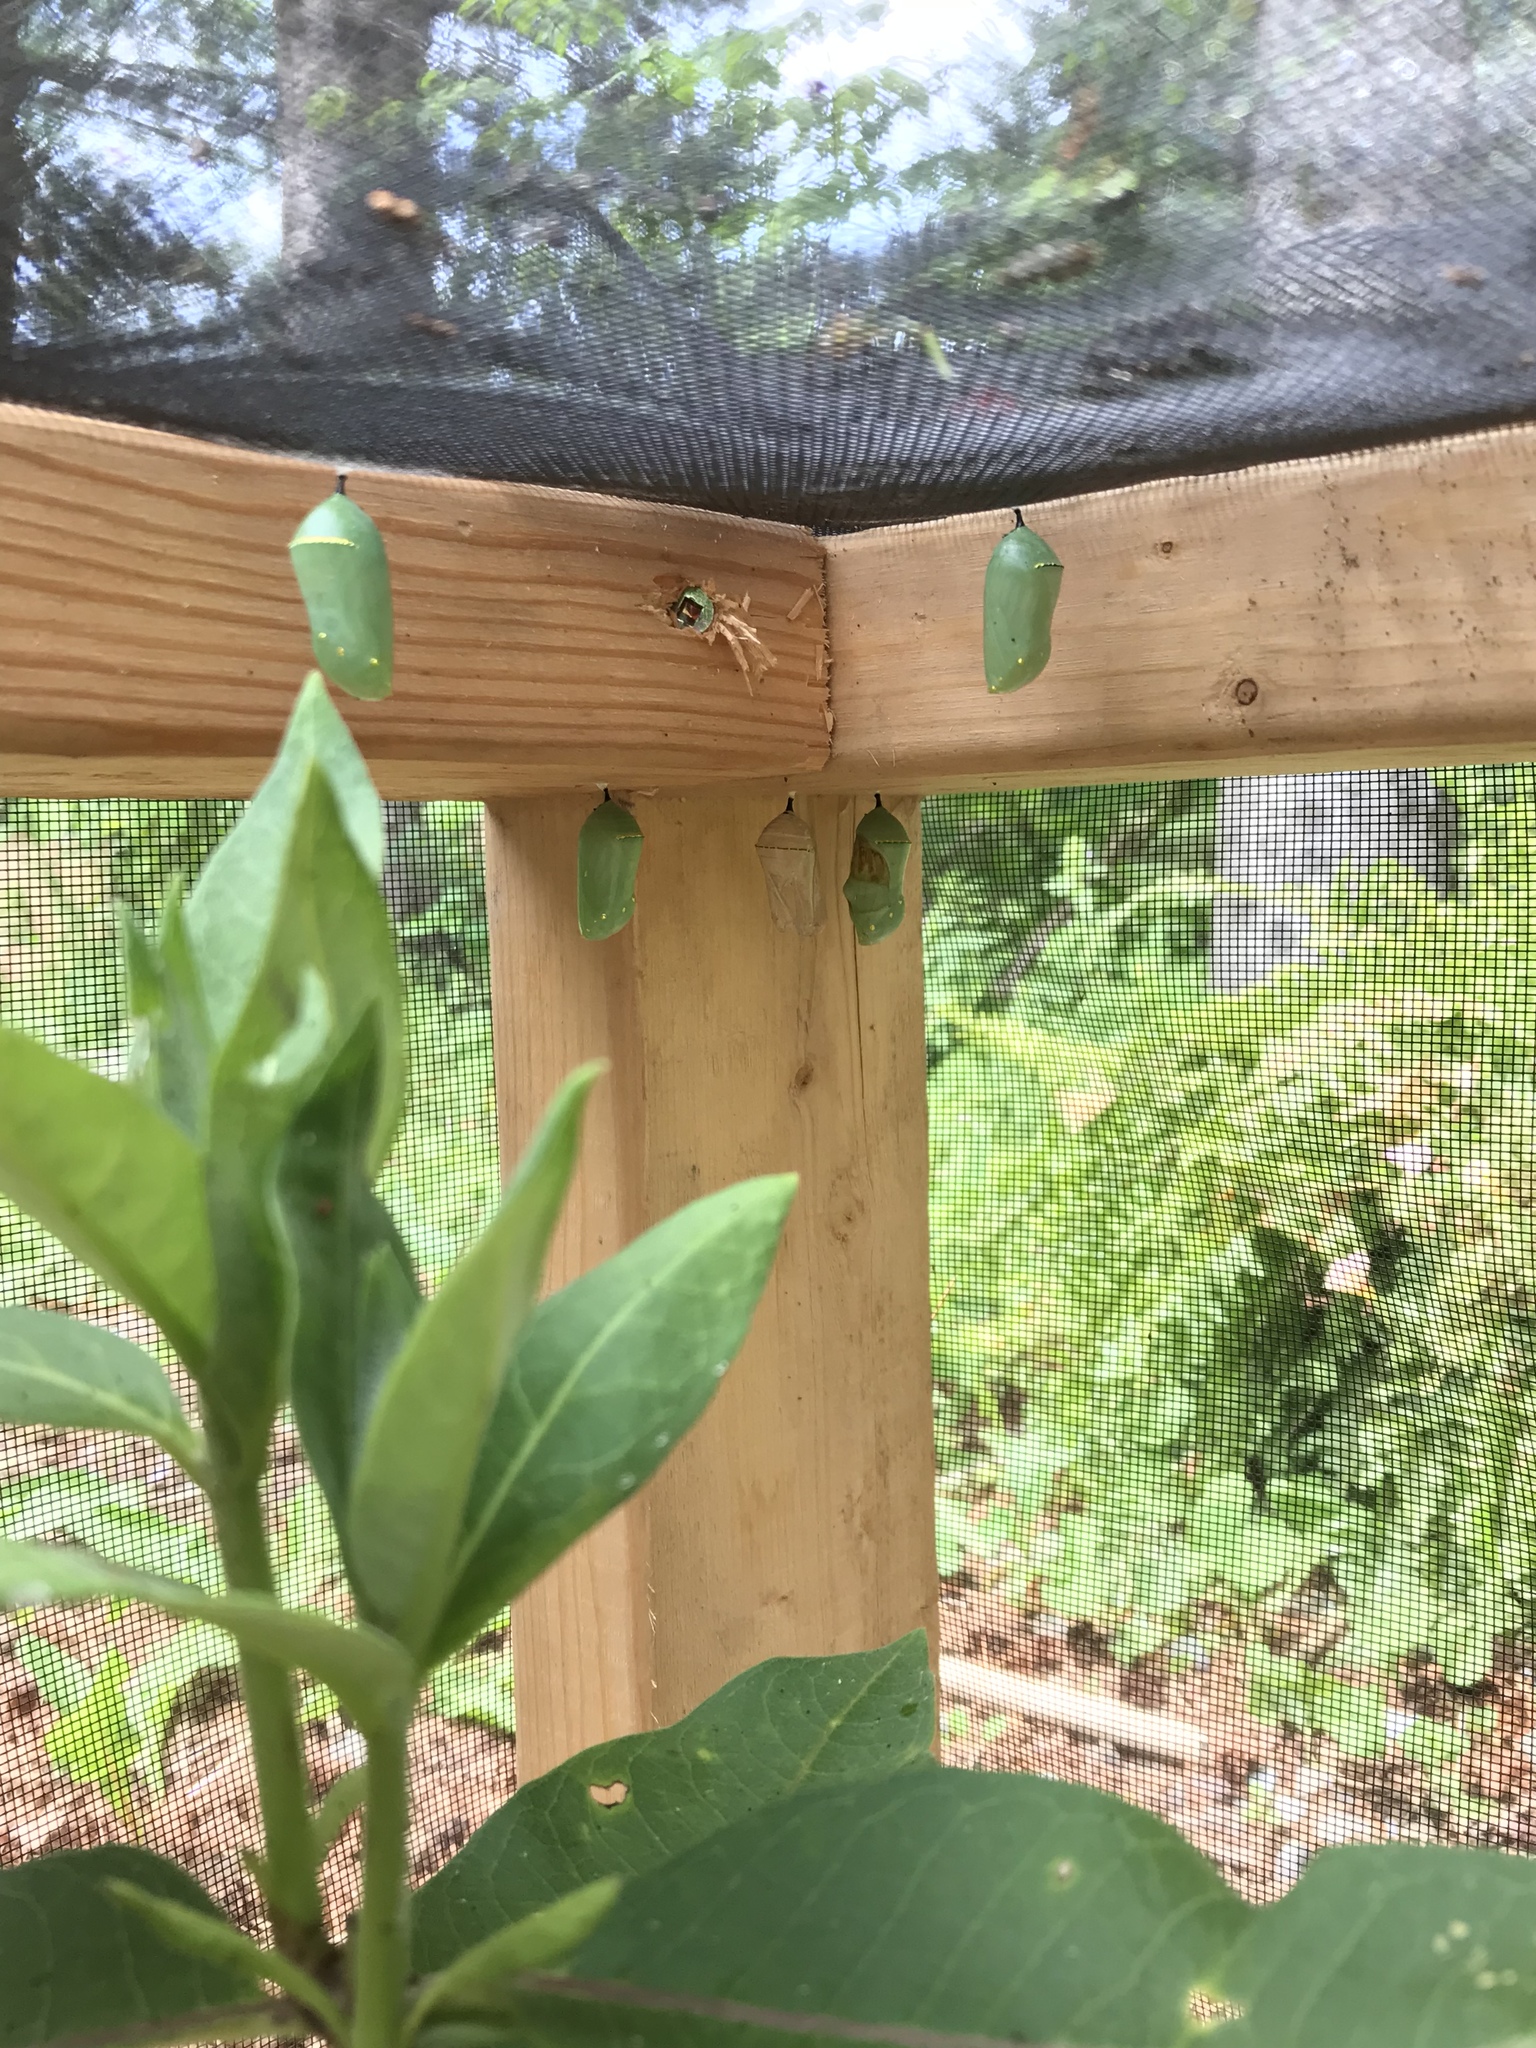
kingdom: Animalia
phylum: Arthropoda
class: Insecta
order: Lepidoptera
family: Nymphalidae
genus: Danaus
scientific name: Danaus plexippus
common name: Monarch
